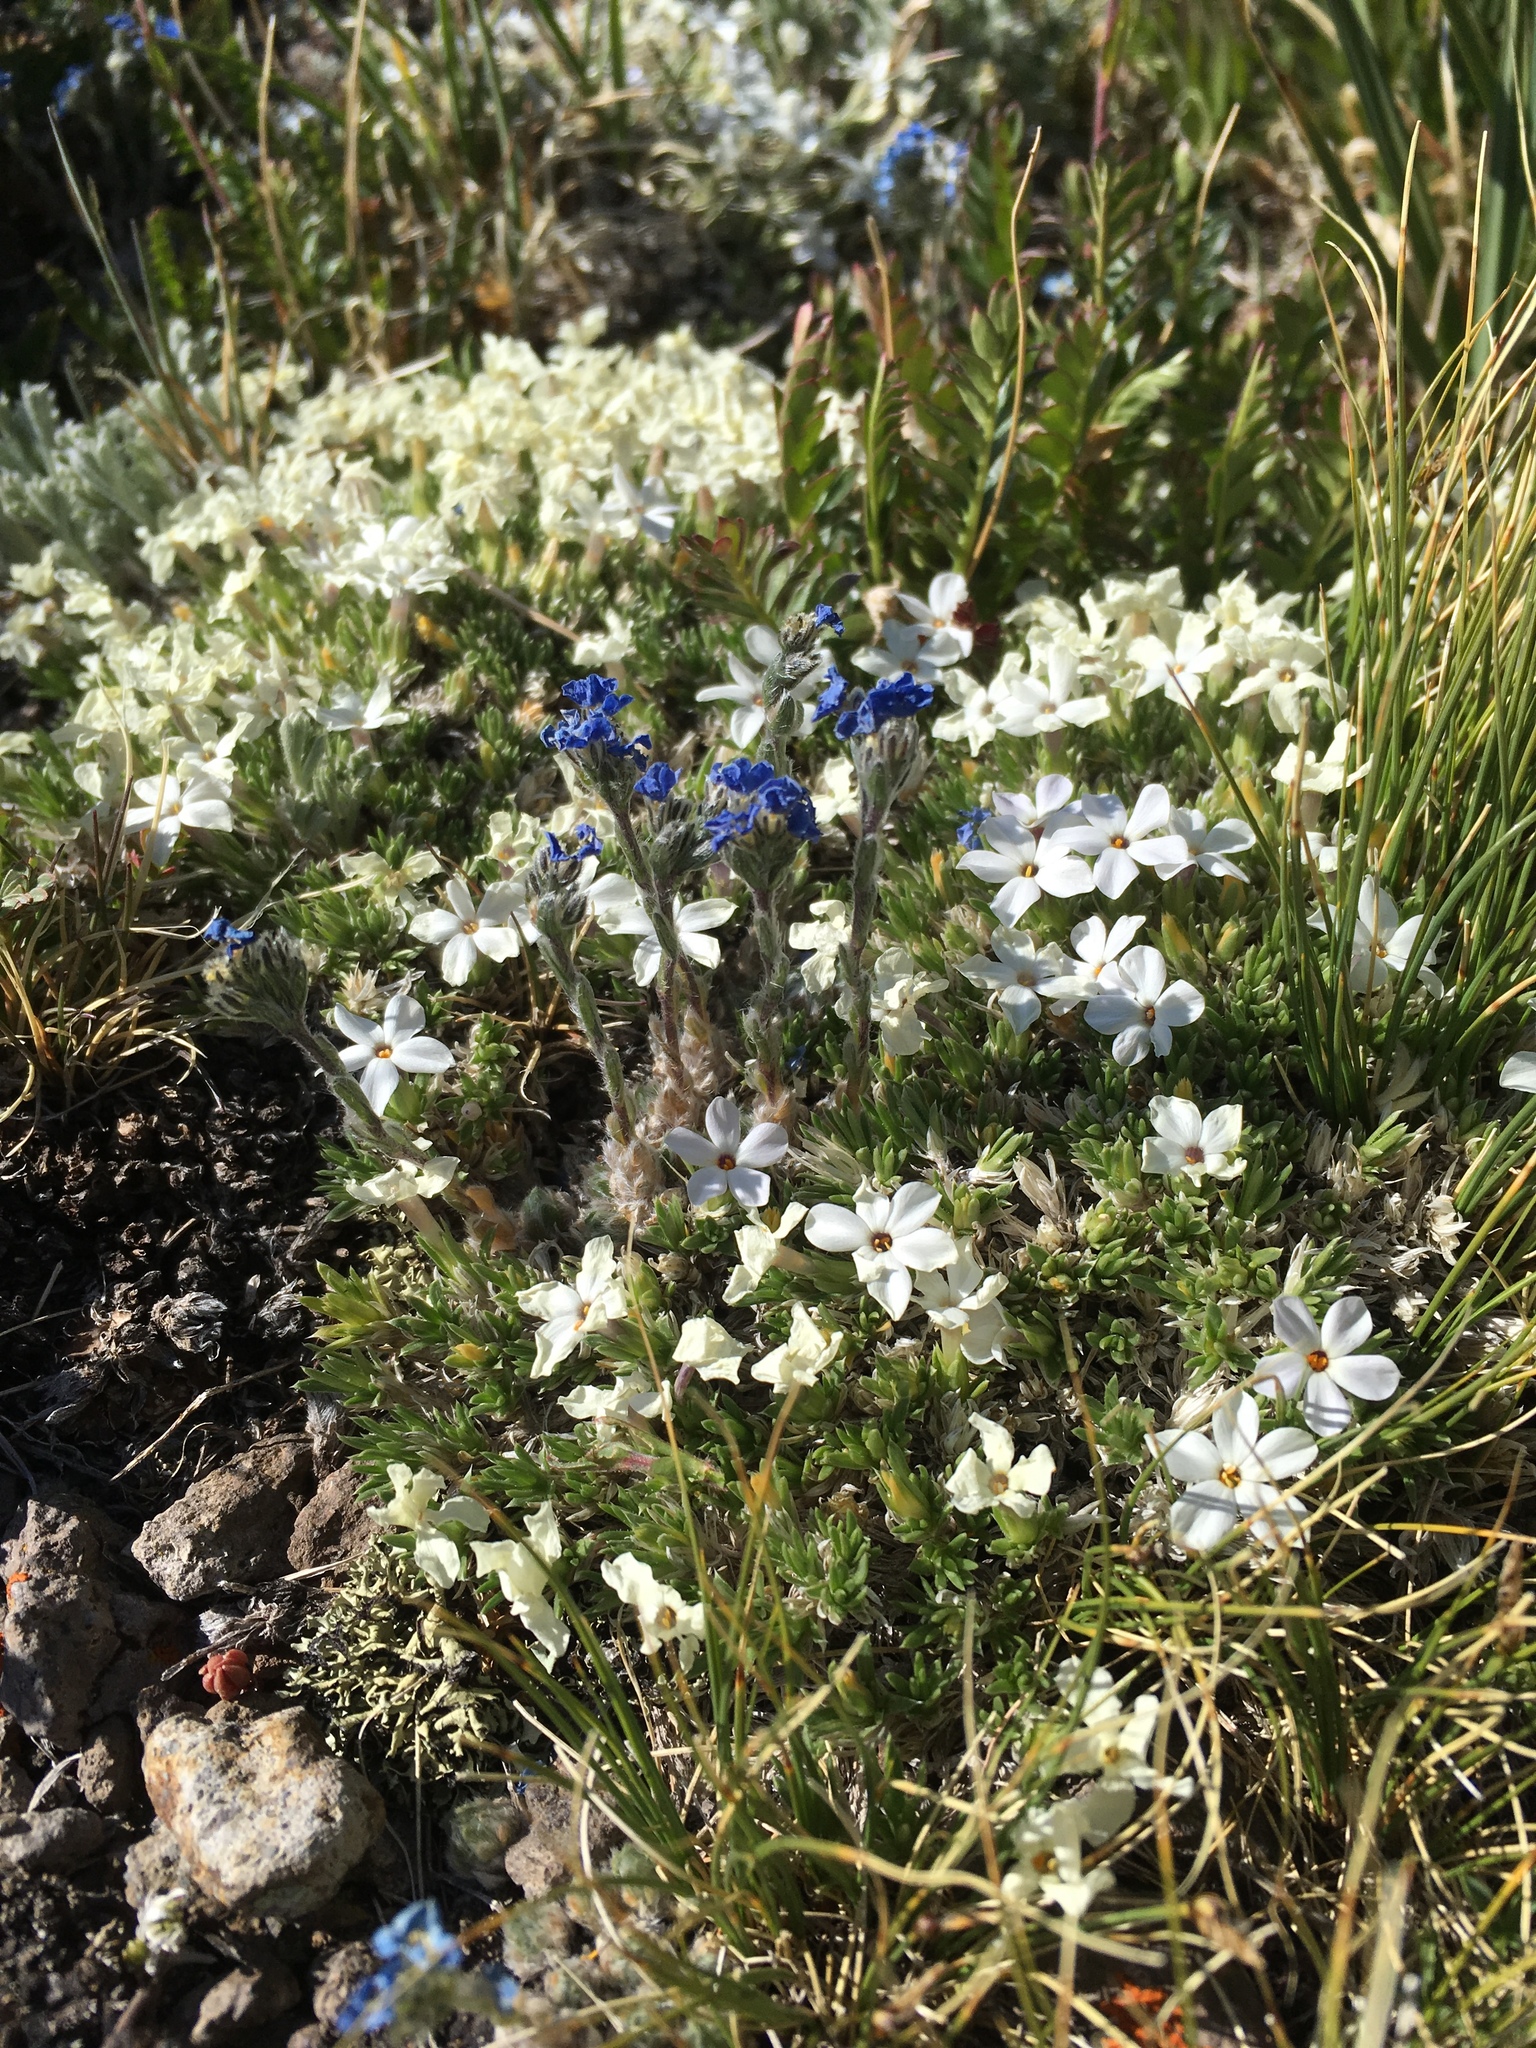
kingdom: Plantae
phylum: Tracheophyta
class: Magnoliopsida
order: Ericales
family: Polemoniaceae
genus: Phlox
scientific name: Phlox condensata
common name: Compact phlox
